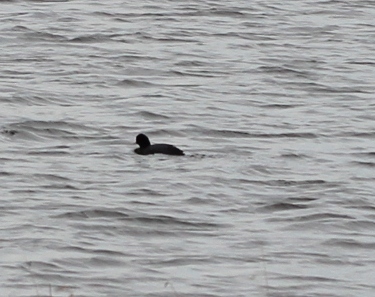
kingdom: Animalia
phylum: Chordata
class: Aves
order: Gruiformes
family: Rallidae
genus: Fulica
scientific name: Fulica atra
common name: Eurasian coot
